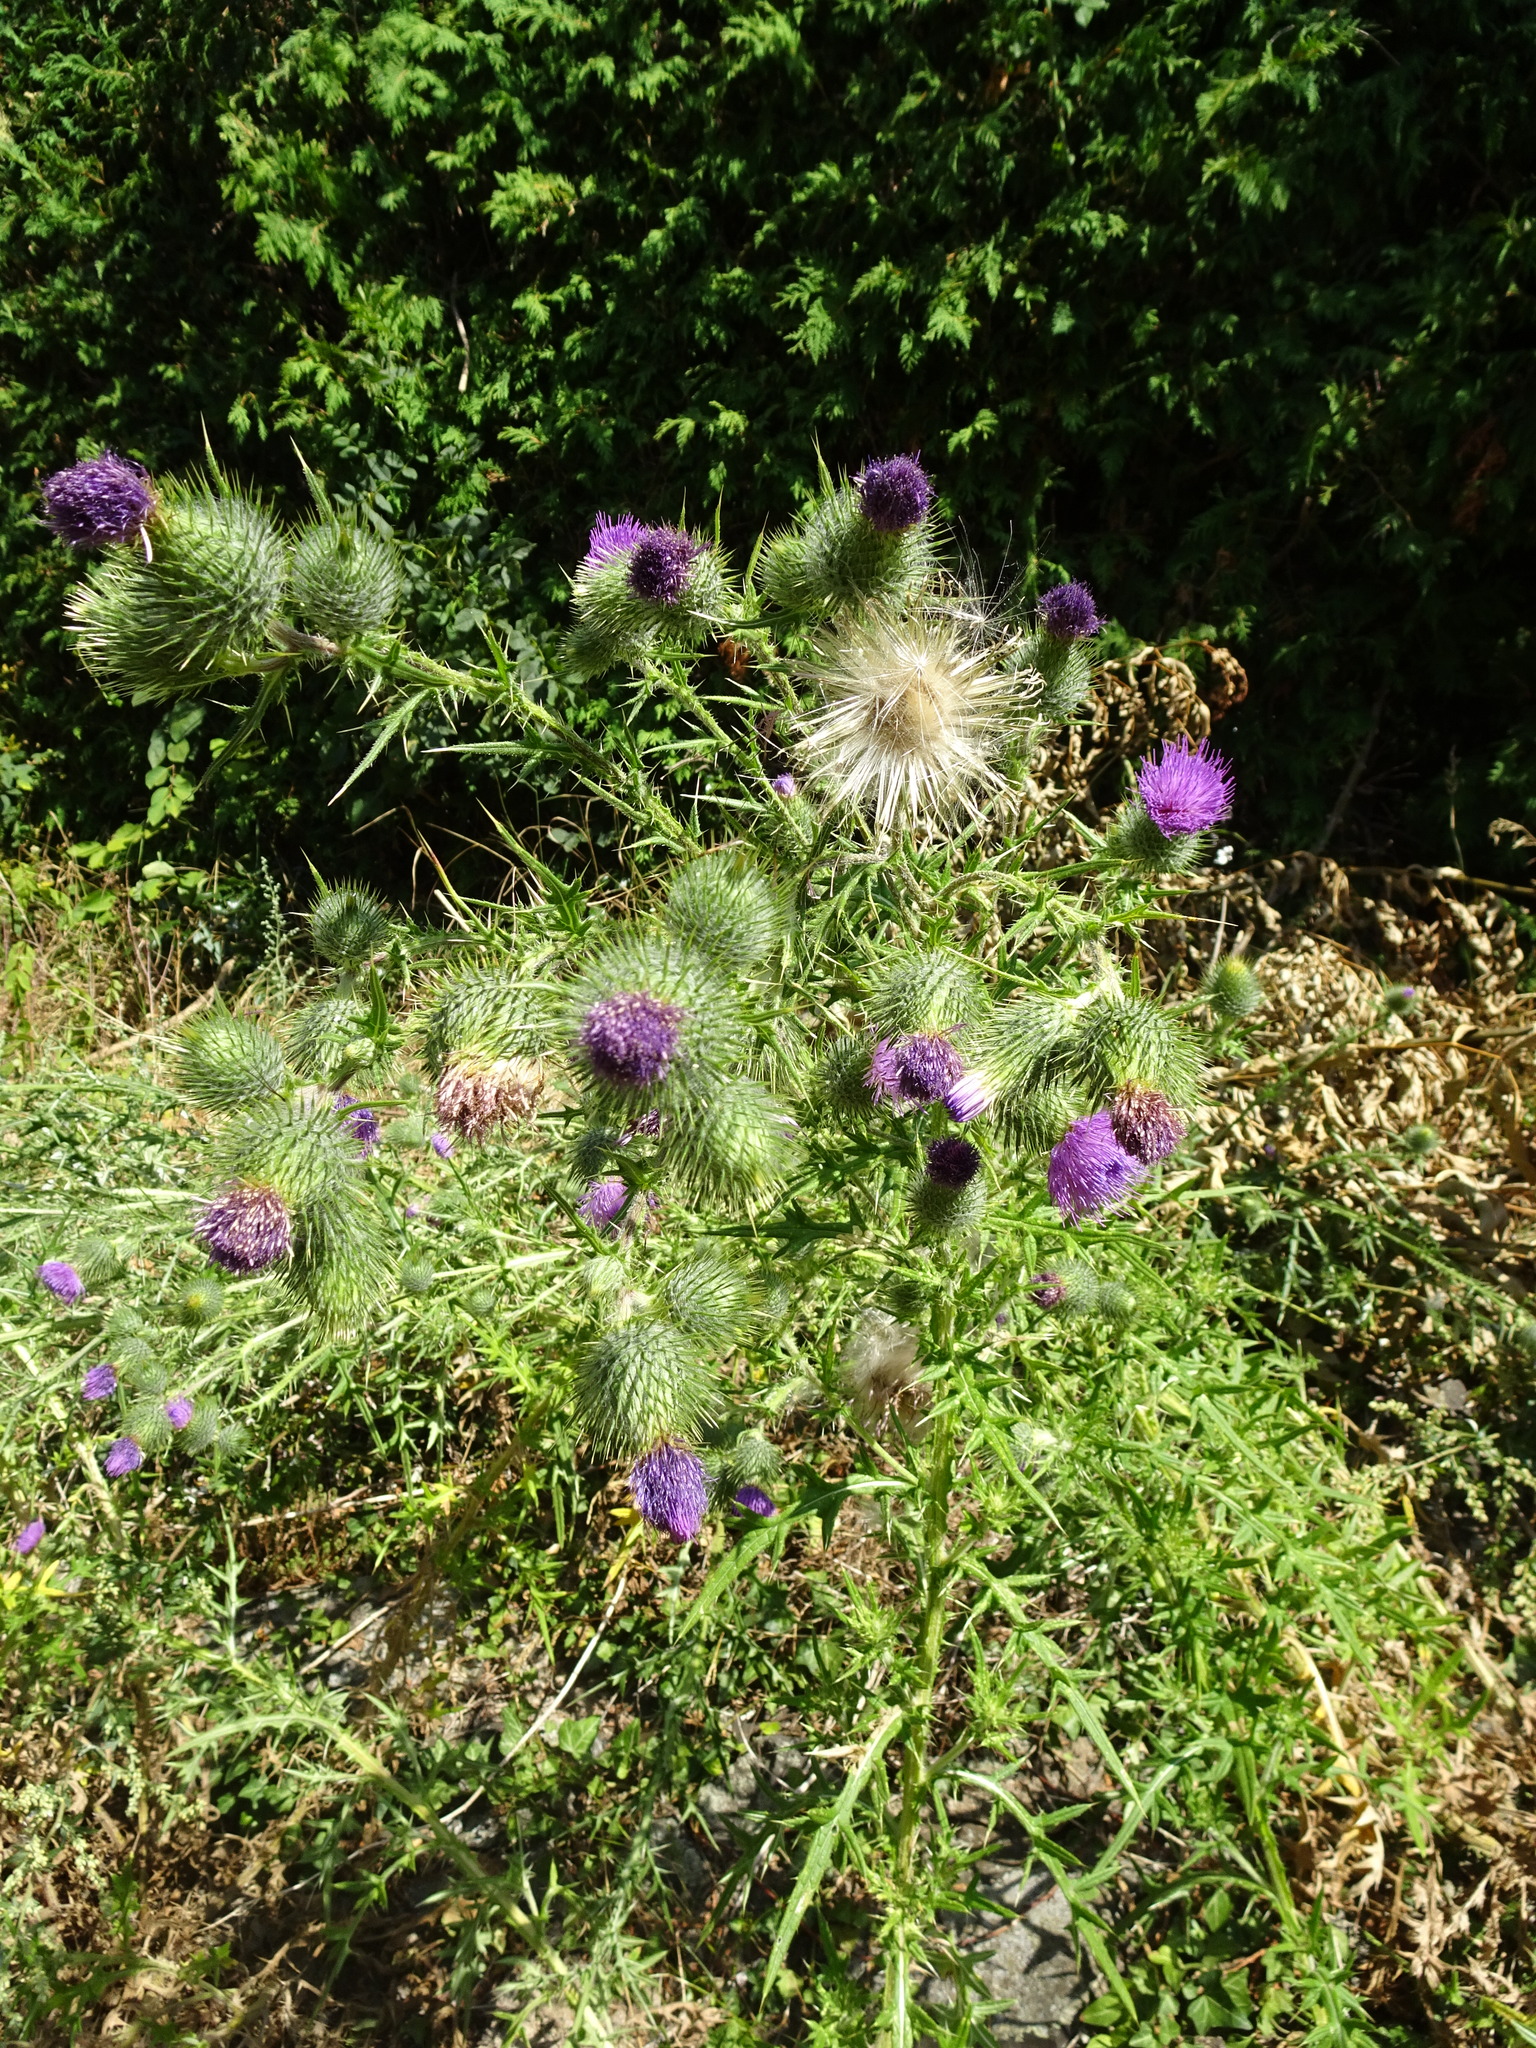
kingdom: Plantae
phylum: Tracheophyta
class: Magnoliopsida
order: Asterales
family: Asteraceae
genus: Cirsium
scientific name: Cirsium vulgare
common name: Bull thistle
